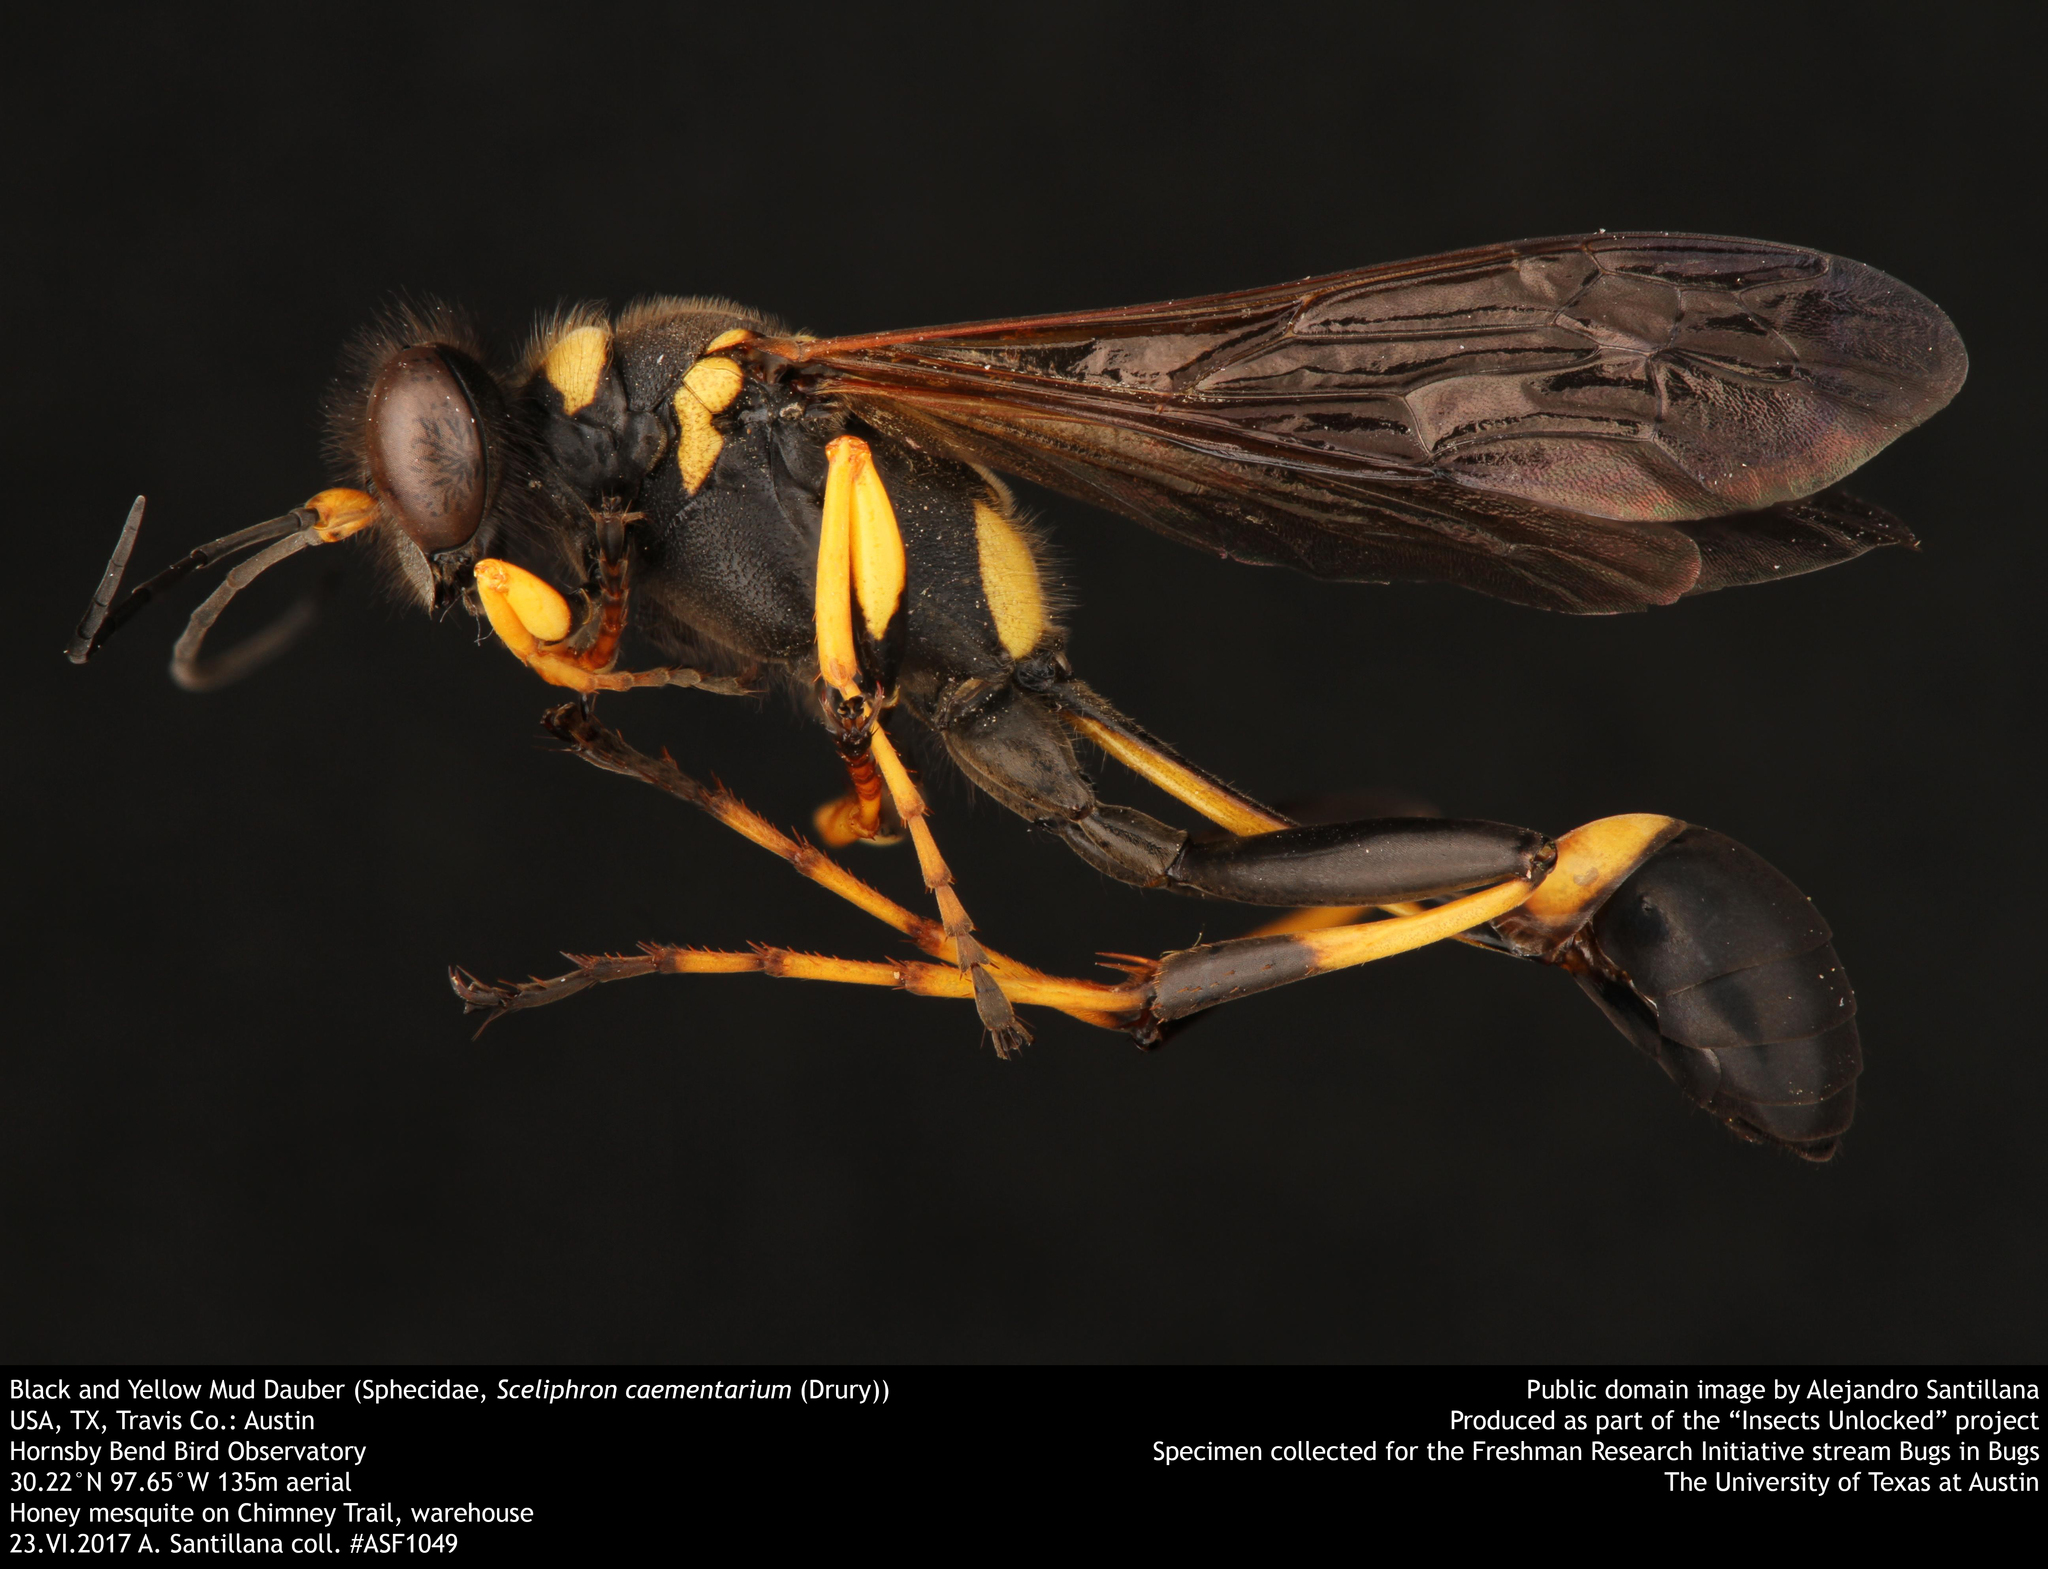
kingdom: Animalia
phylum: Arthropoda
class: Insecta
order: Hymenoptera
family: Sphecidae
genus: Sceliphron
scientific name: Sceliphron caementarium
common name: Mud dauber
